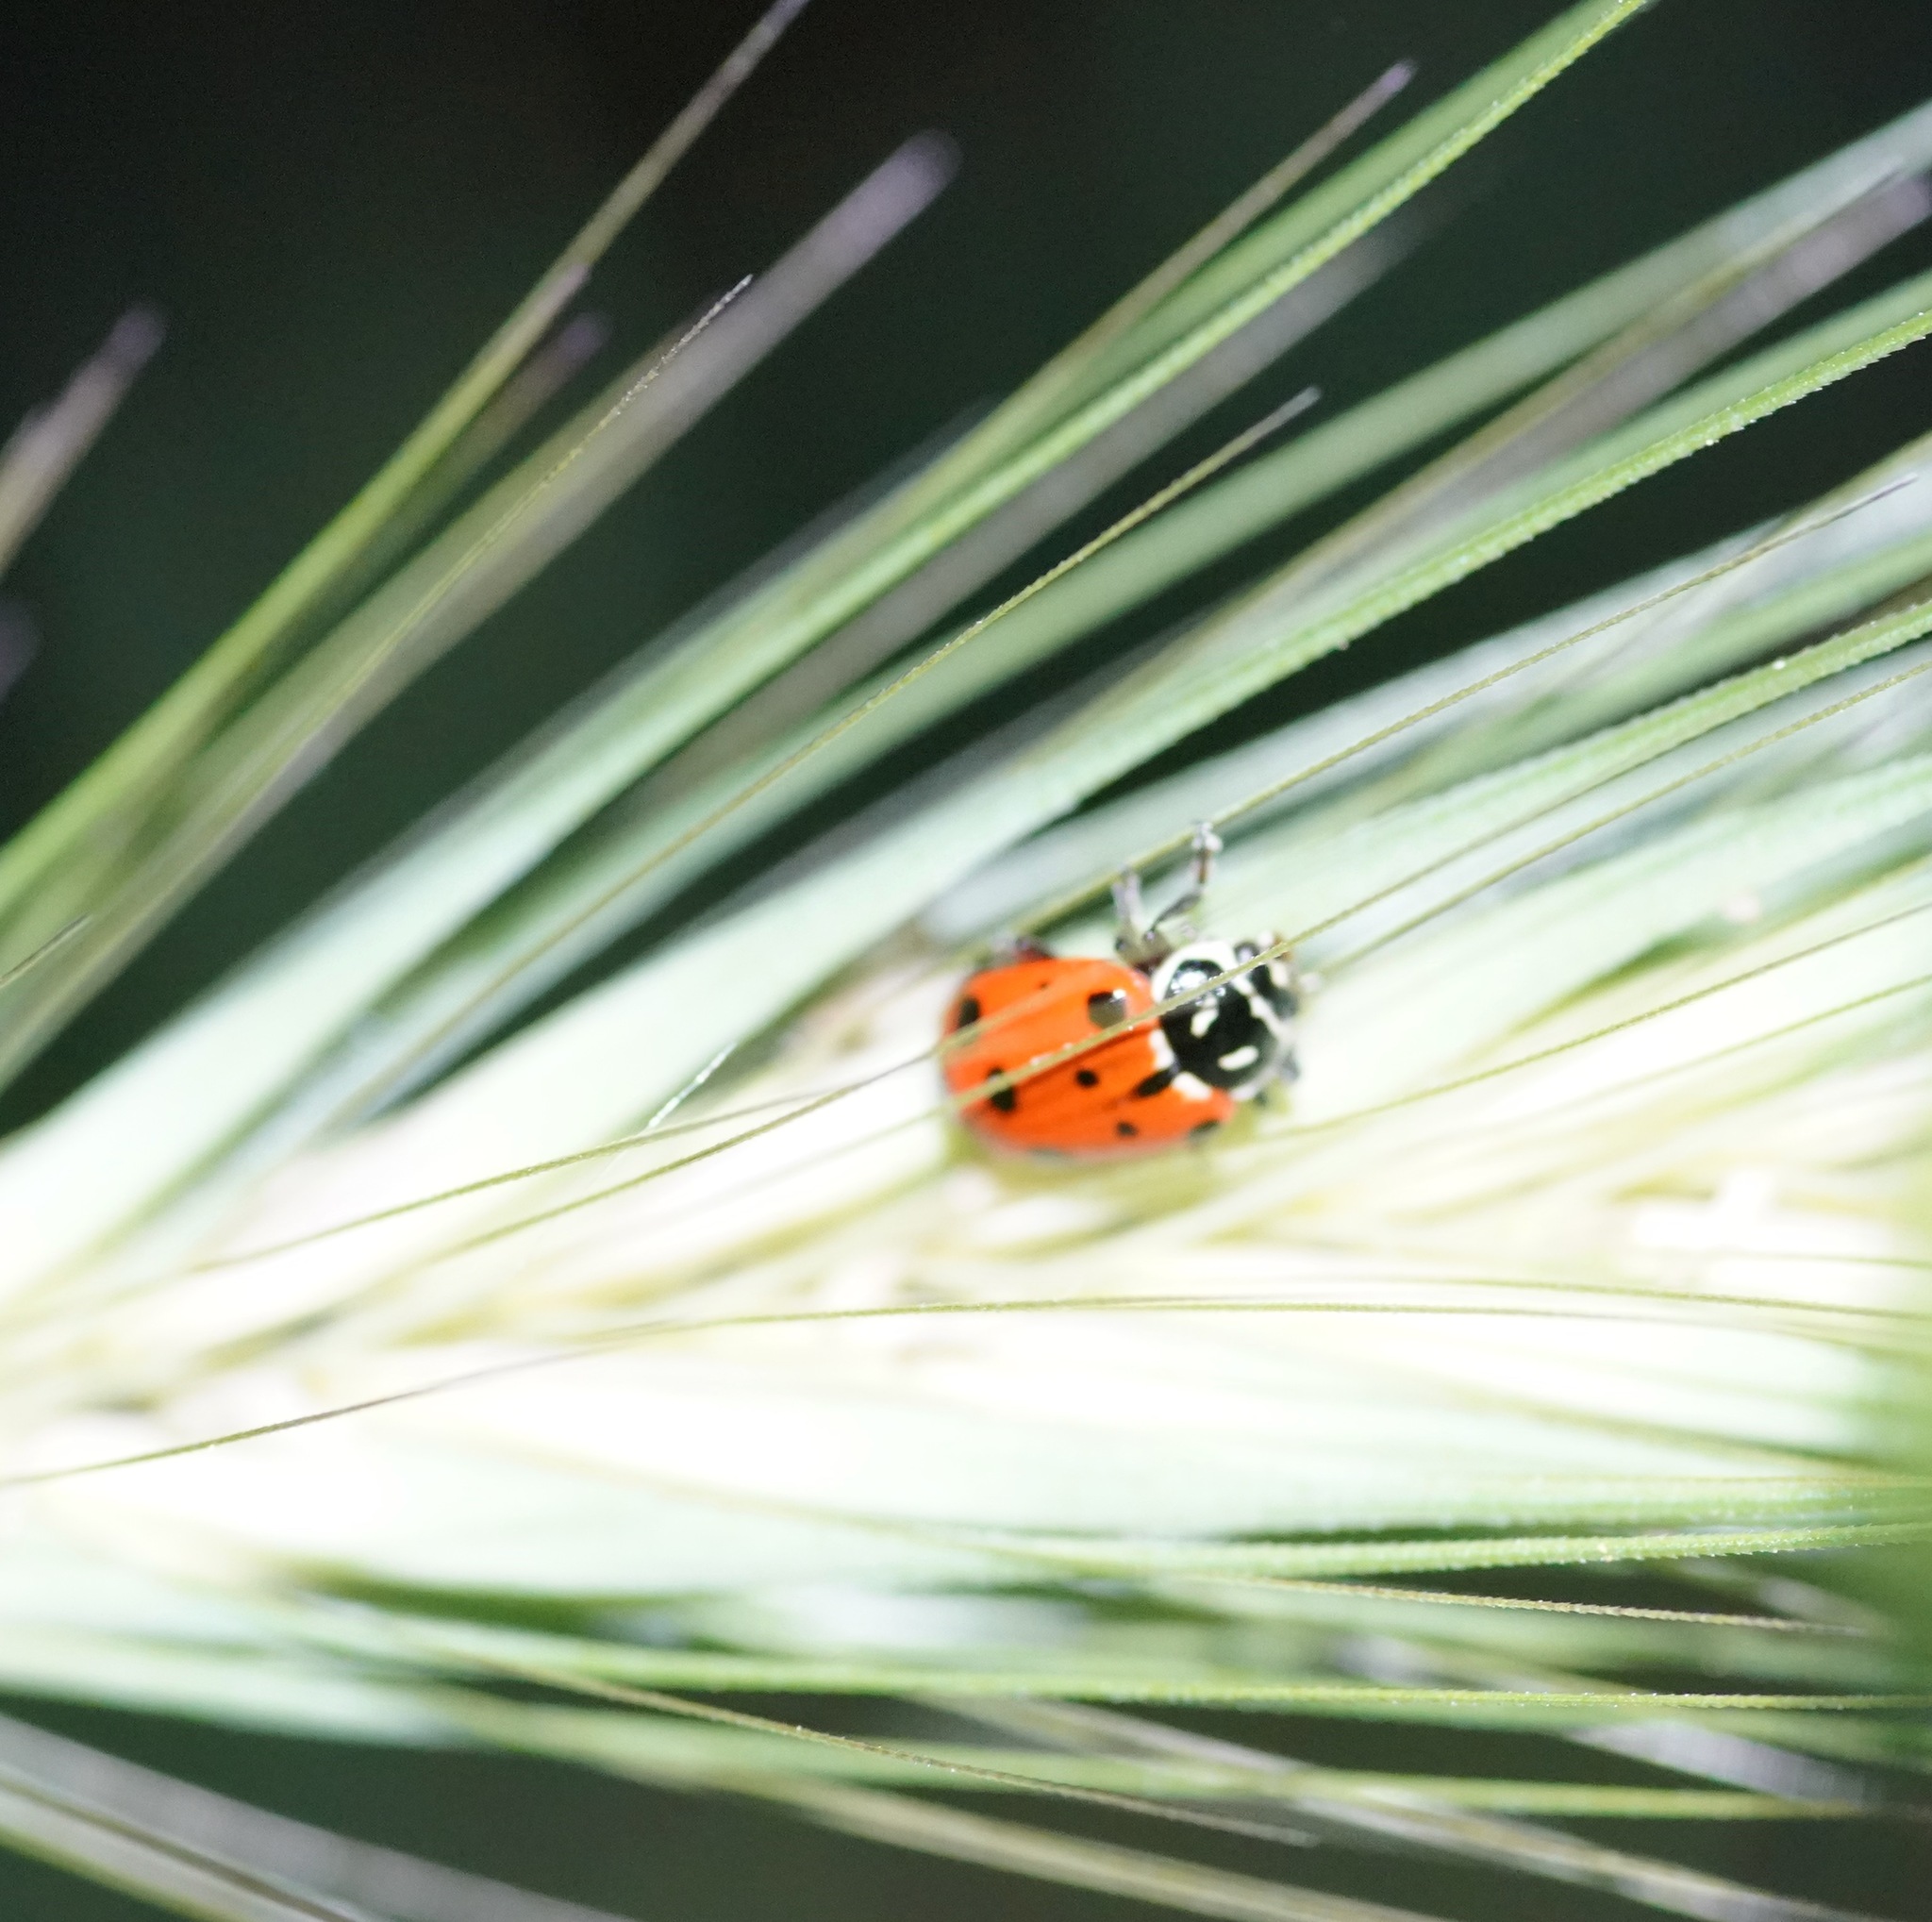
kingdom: Animalia
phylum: Arthropoda
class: Insecta
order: Coleoptera
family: Coccinellidae
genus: Hippodamia
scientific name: Hippodamia convergens
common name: Convergent lady beetle
